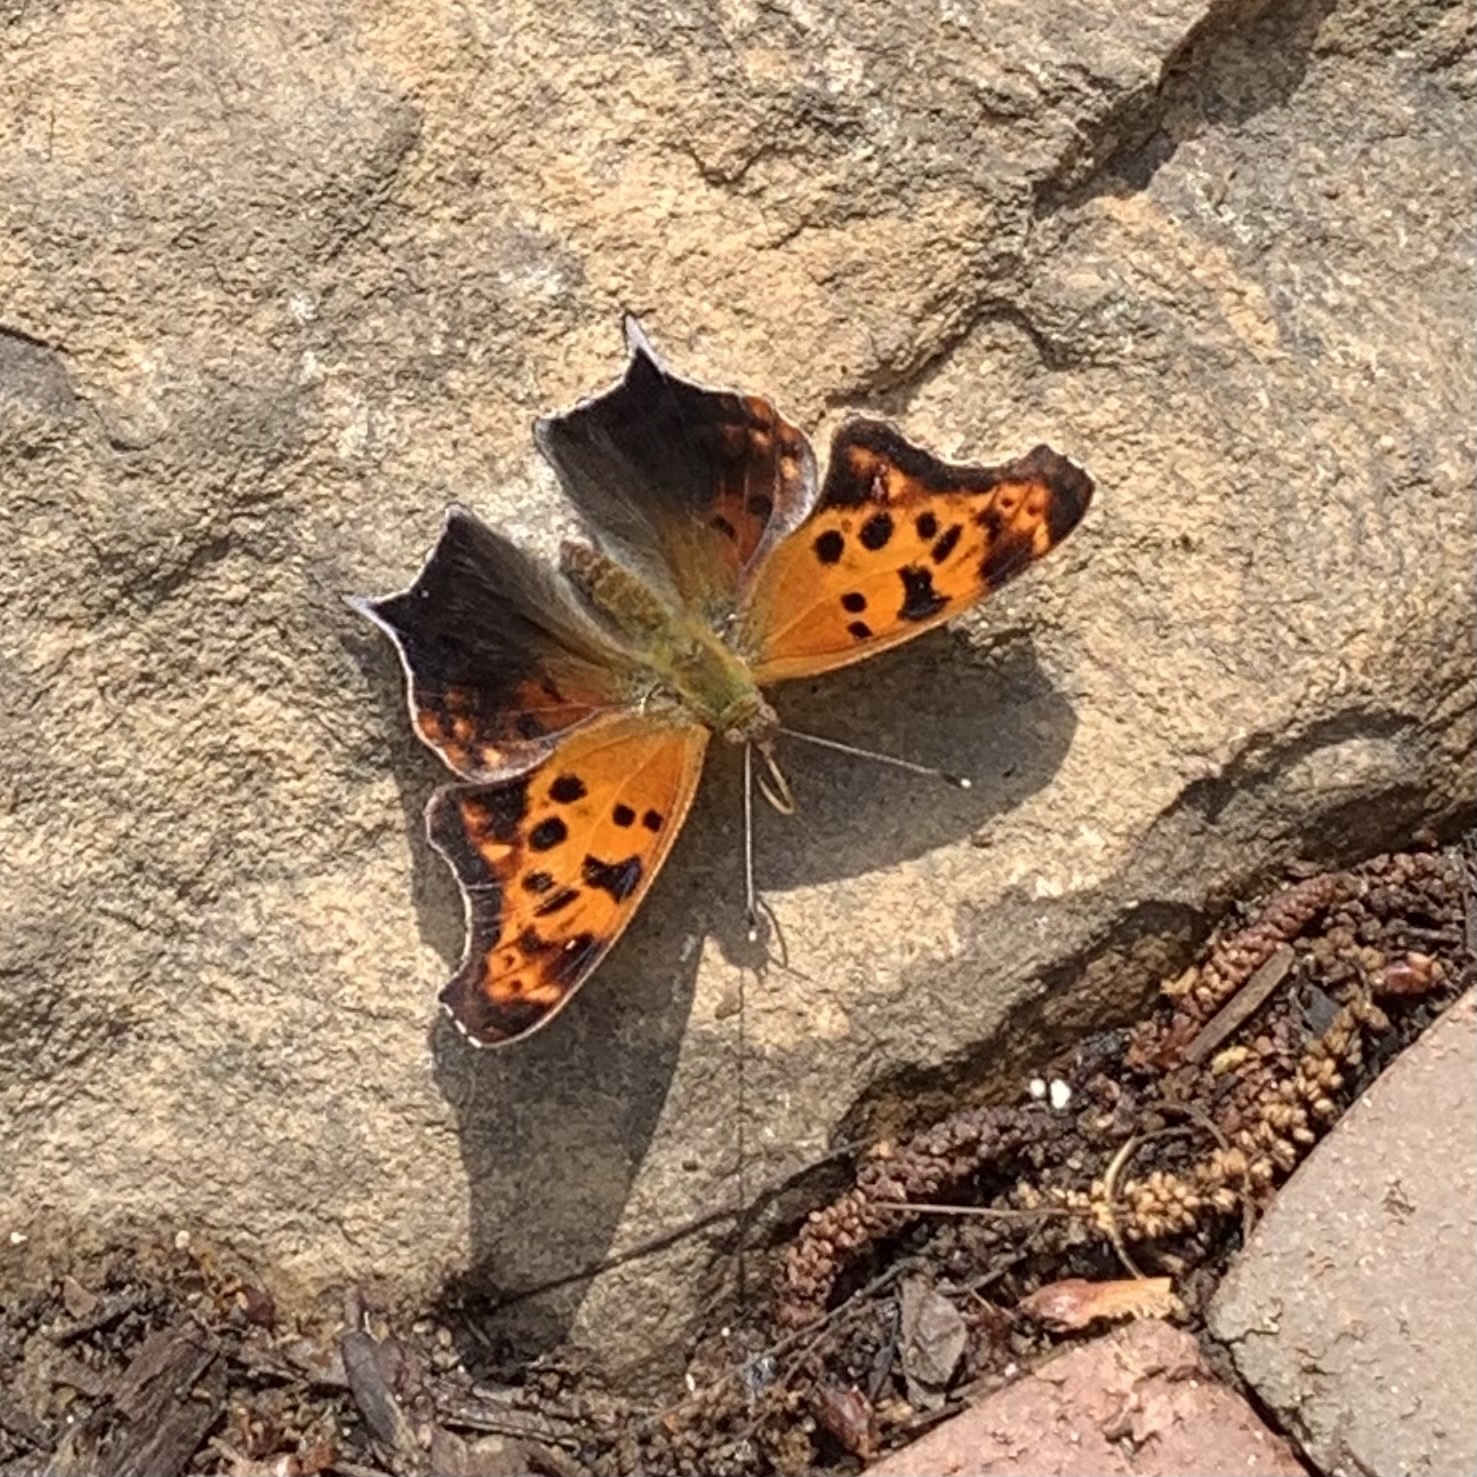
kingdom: Animalia
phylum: Arthropoda
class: Insecta
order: Lepidoptera
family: Nymphalidae
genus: Polygonia
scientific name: Polygonia interrogationis
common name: Question mark
